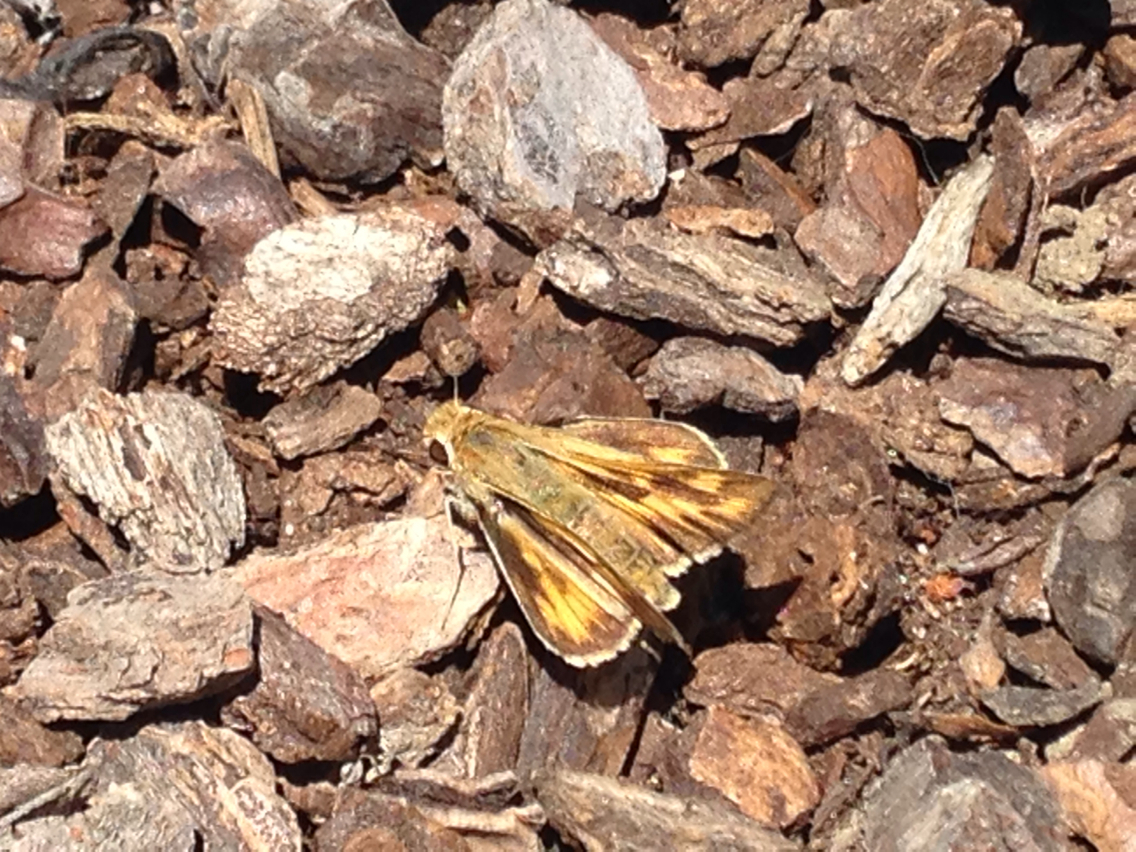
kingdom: Animalia
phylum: Arthropoda
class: Insecta
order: Lepidoptera
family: Hesperiidae
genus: Hylephila
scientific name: Hylephila phyleus
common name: Fiery skipper
